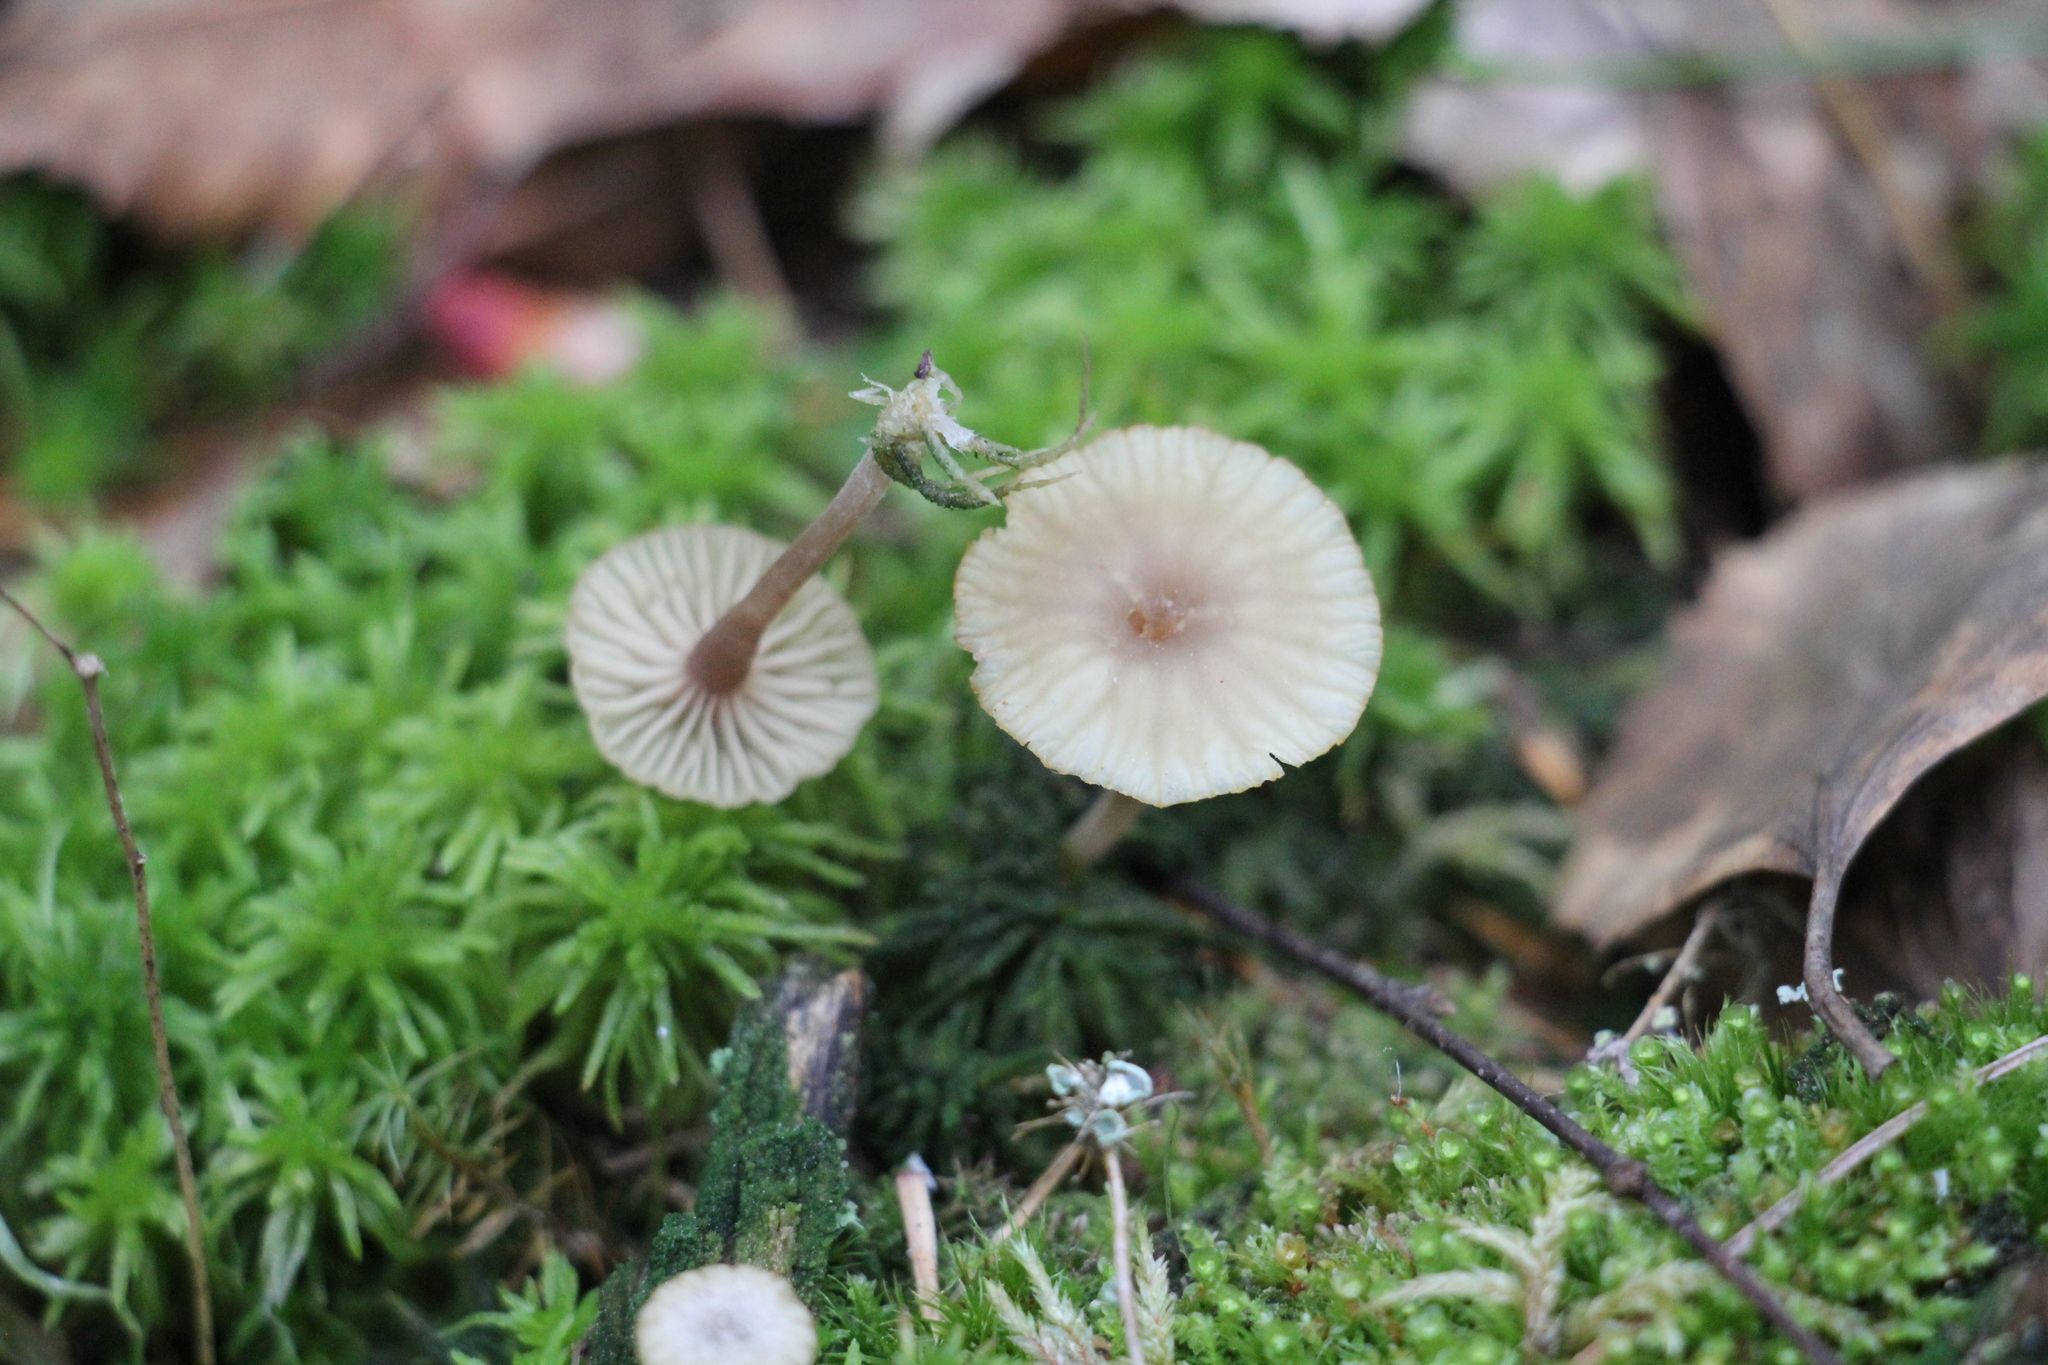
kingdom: Fungi
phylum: Basidiomycota
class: Agaricomycetes
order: Agaricales
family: Hygrophoraceae
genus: Lichenomphalia
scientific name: Lichenomphalia
